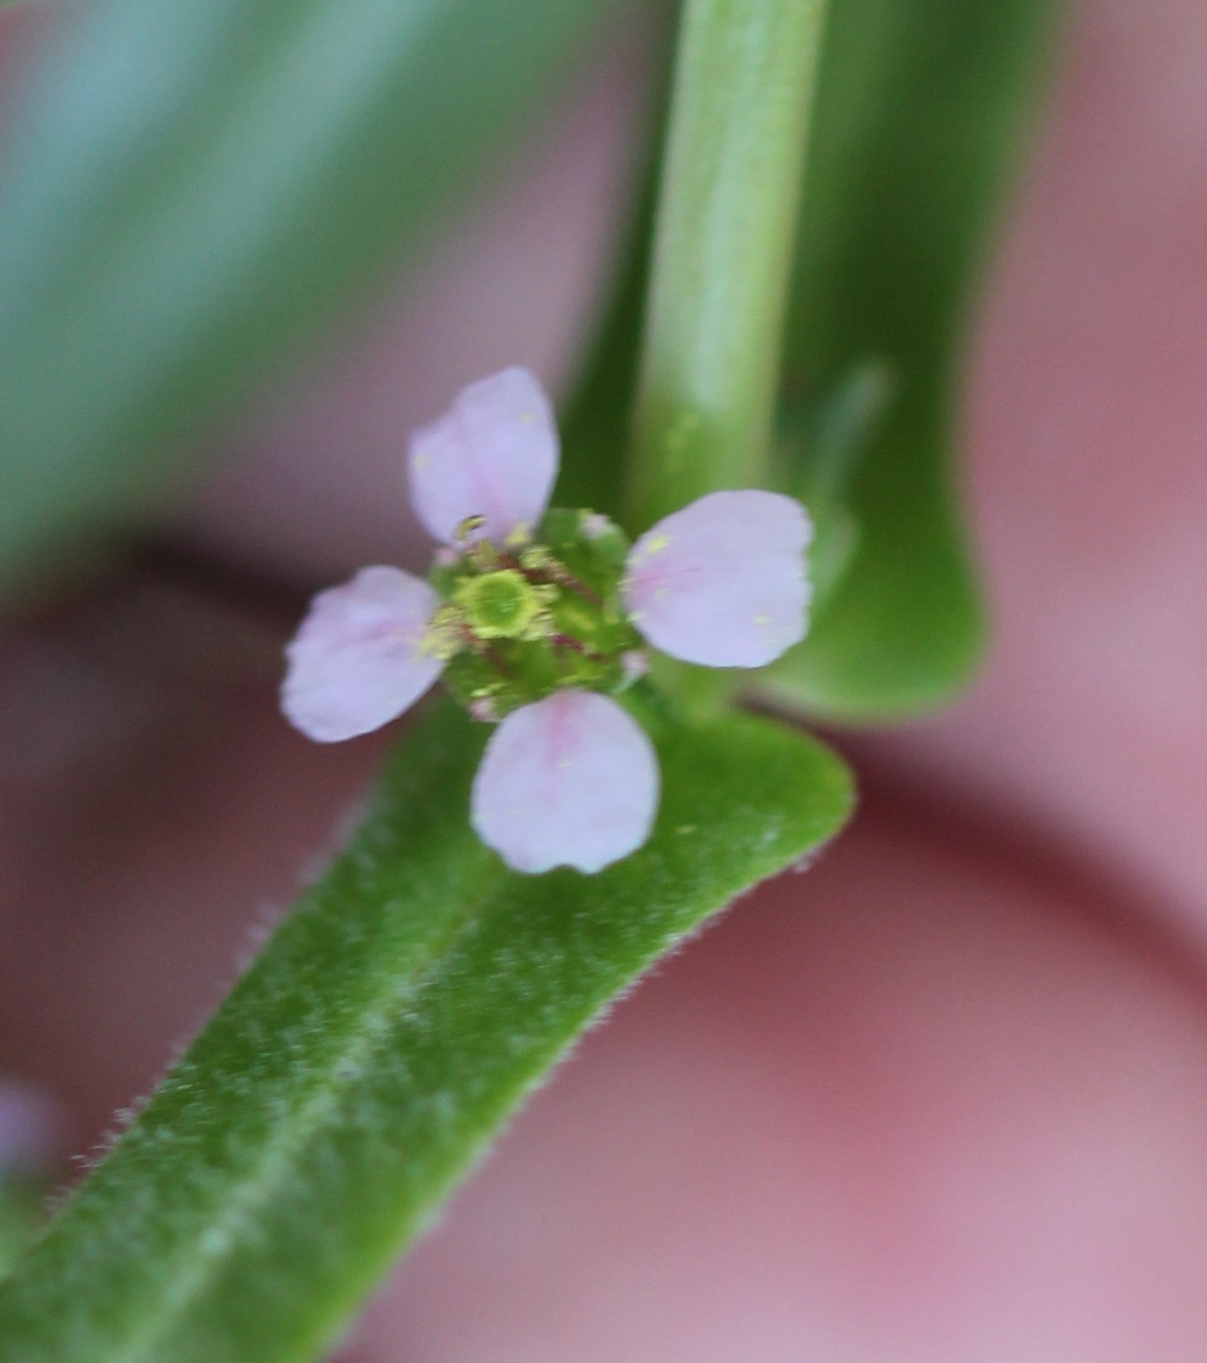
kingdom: Plantae
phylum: Tracheophyta
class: Magnoliopsida
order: Myrtales
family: Lythraceae
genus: Ammannia
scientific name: Ammannia robusta
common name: Grand ammannia
